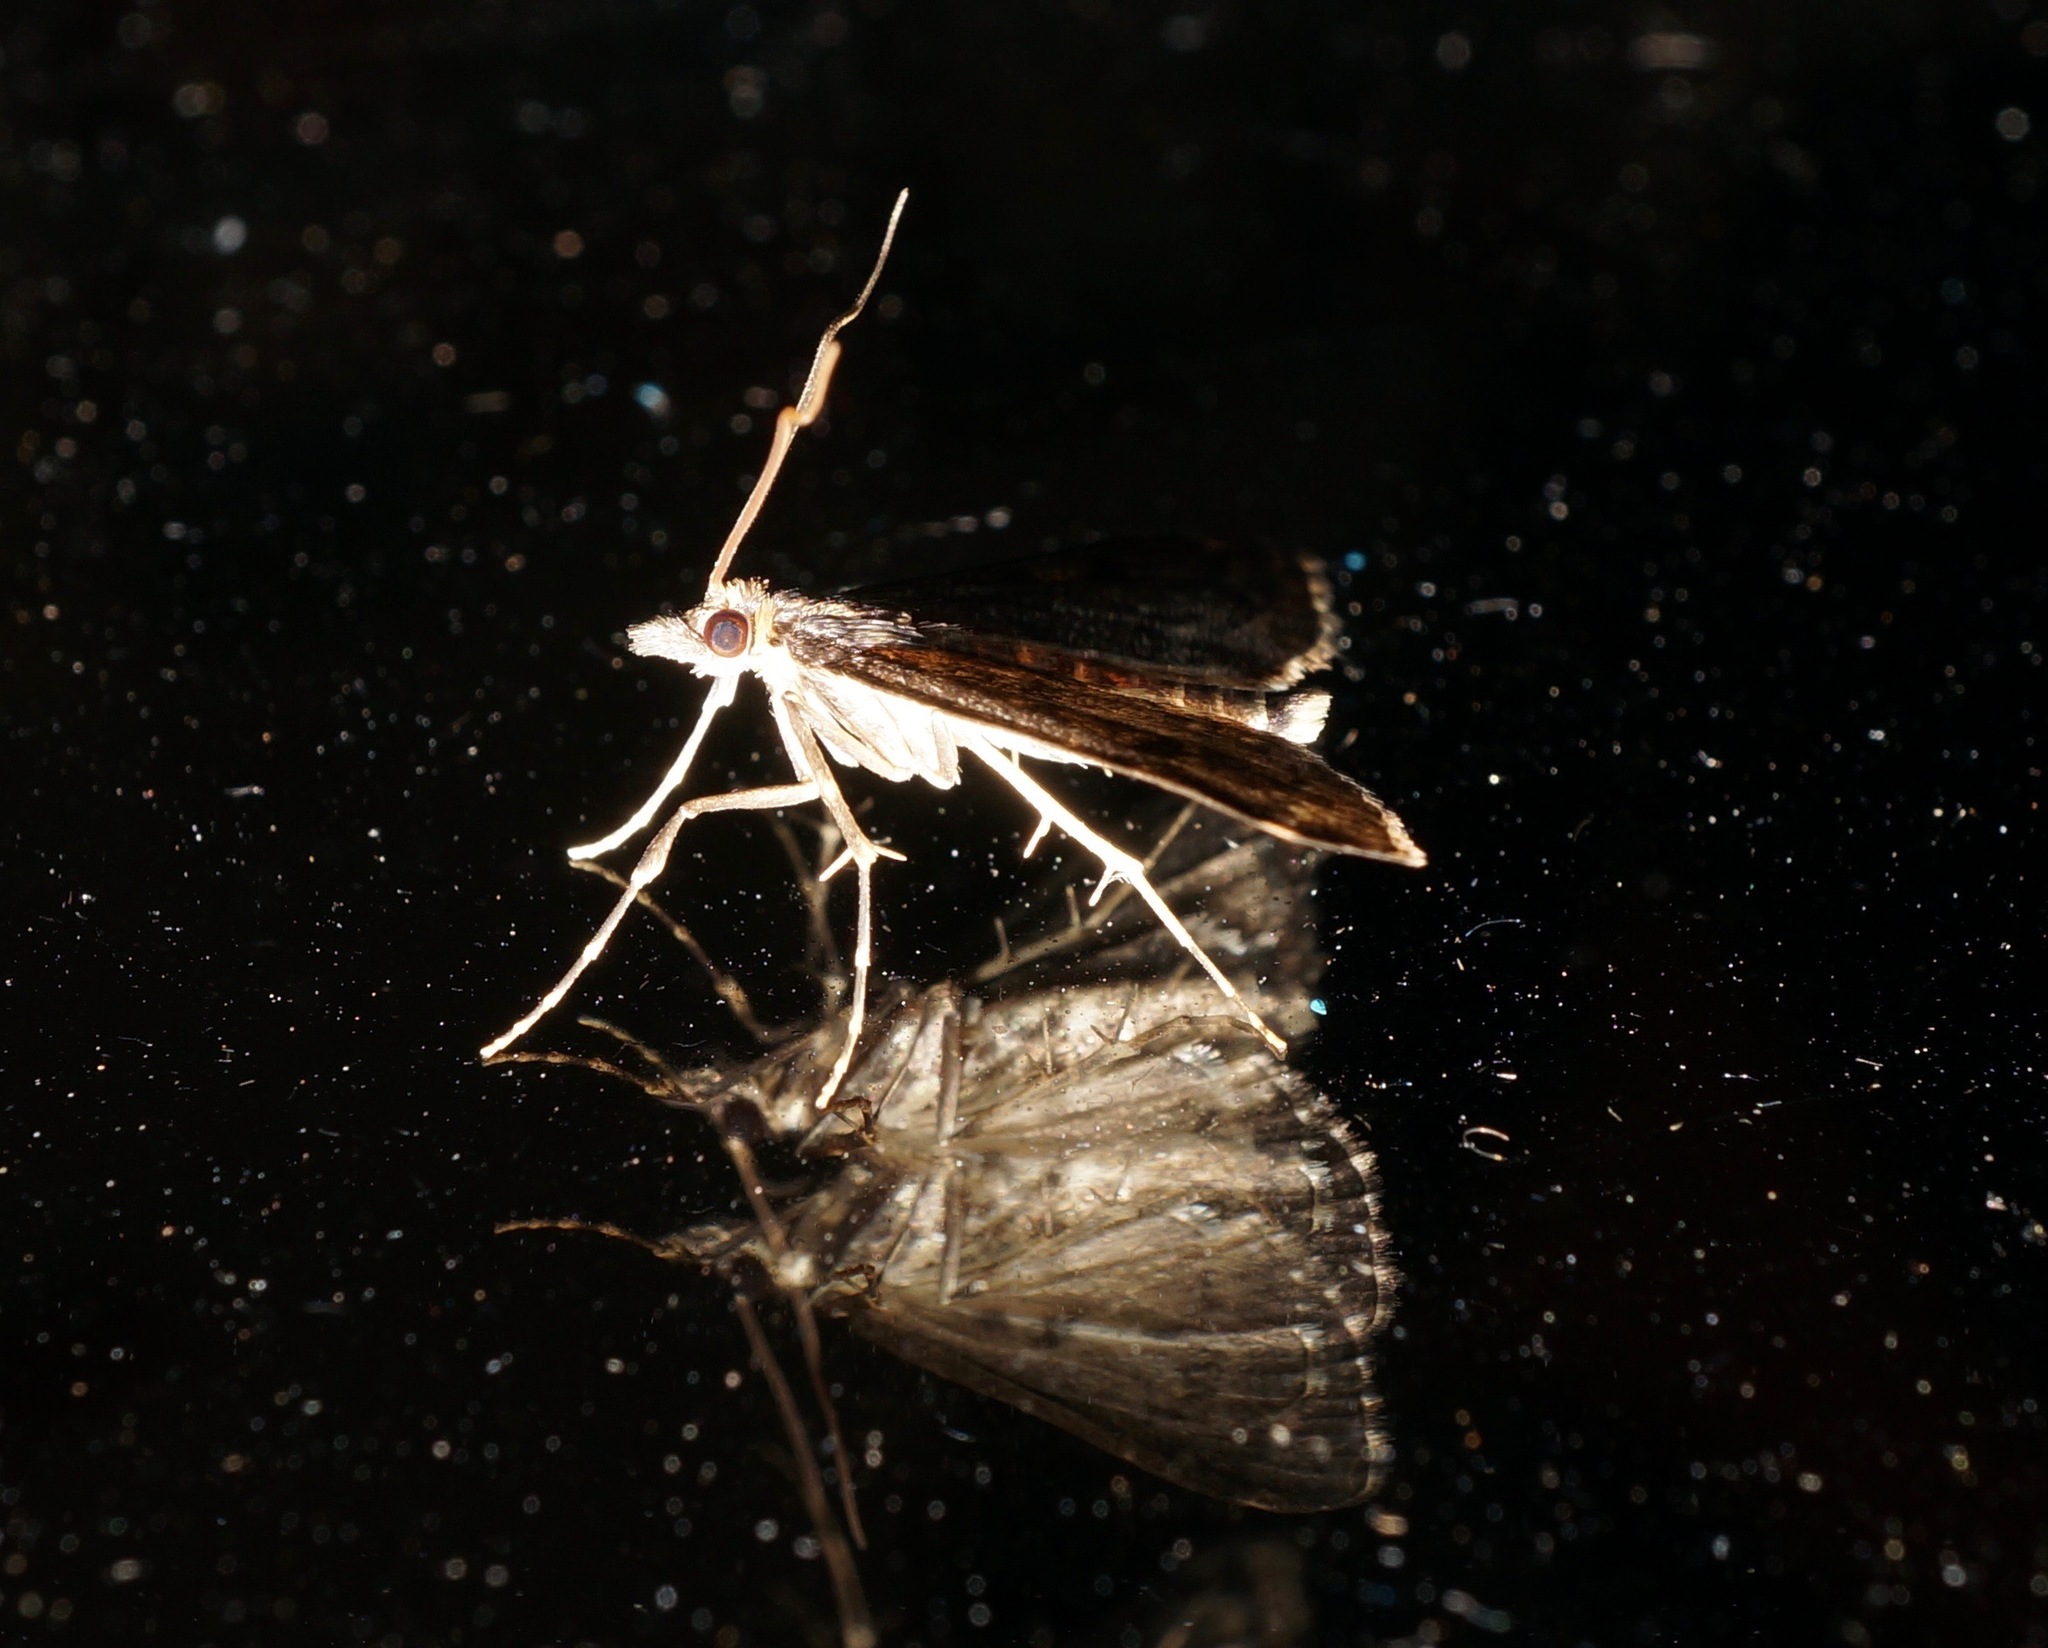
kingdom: Animalia
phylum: Arthropoda
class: Insecta
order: Lepidoptera
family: Crambidae
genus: Loxostege
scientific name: Loxostege Proternia philocapna
